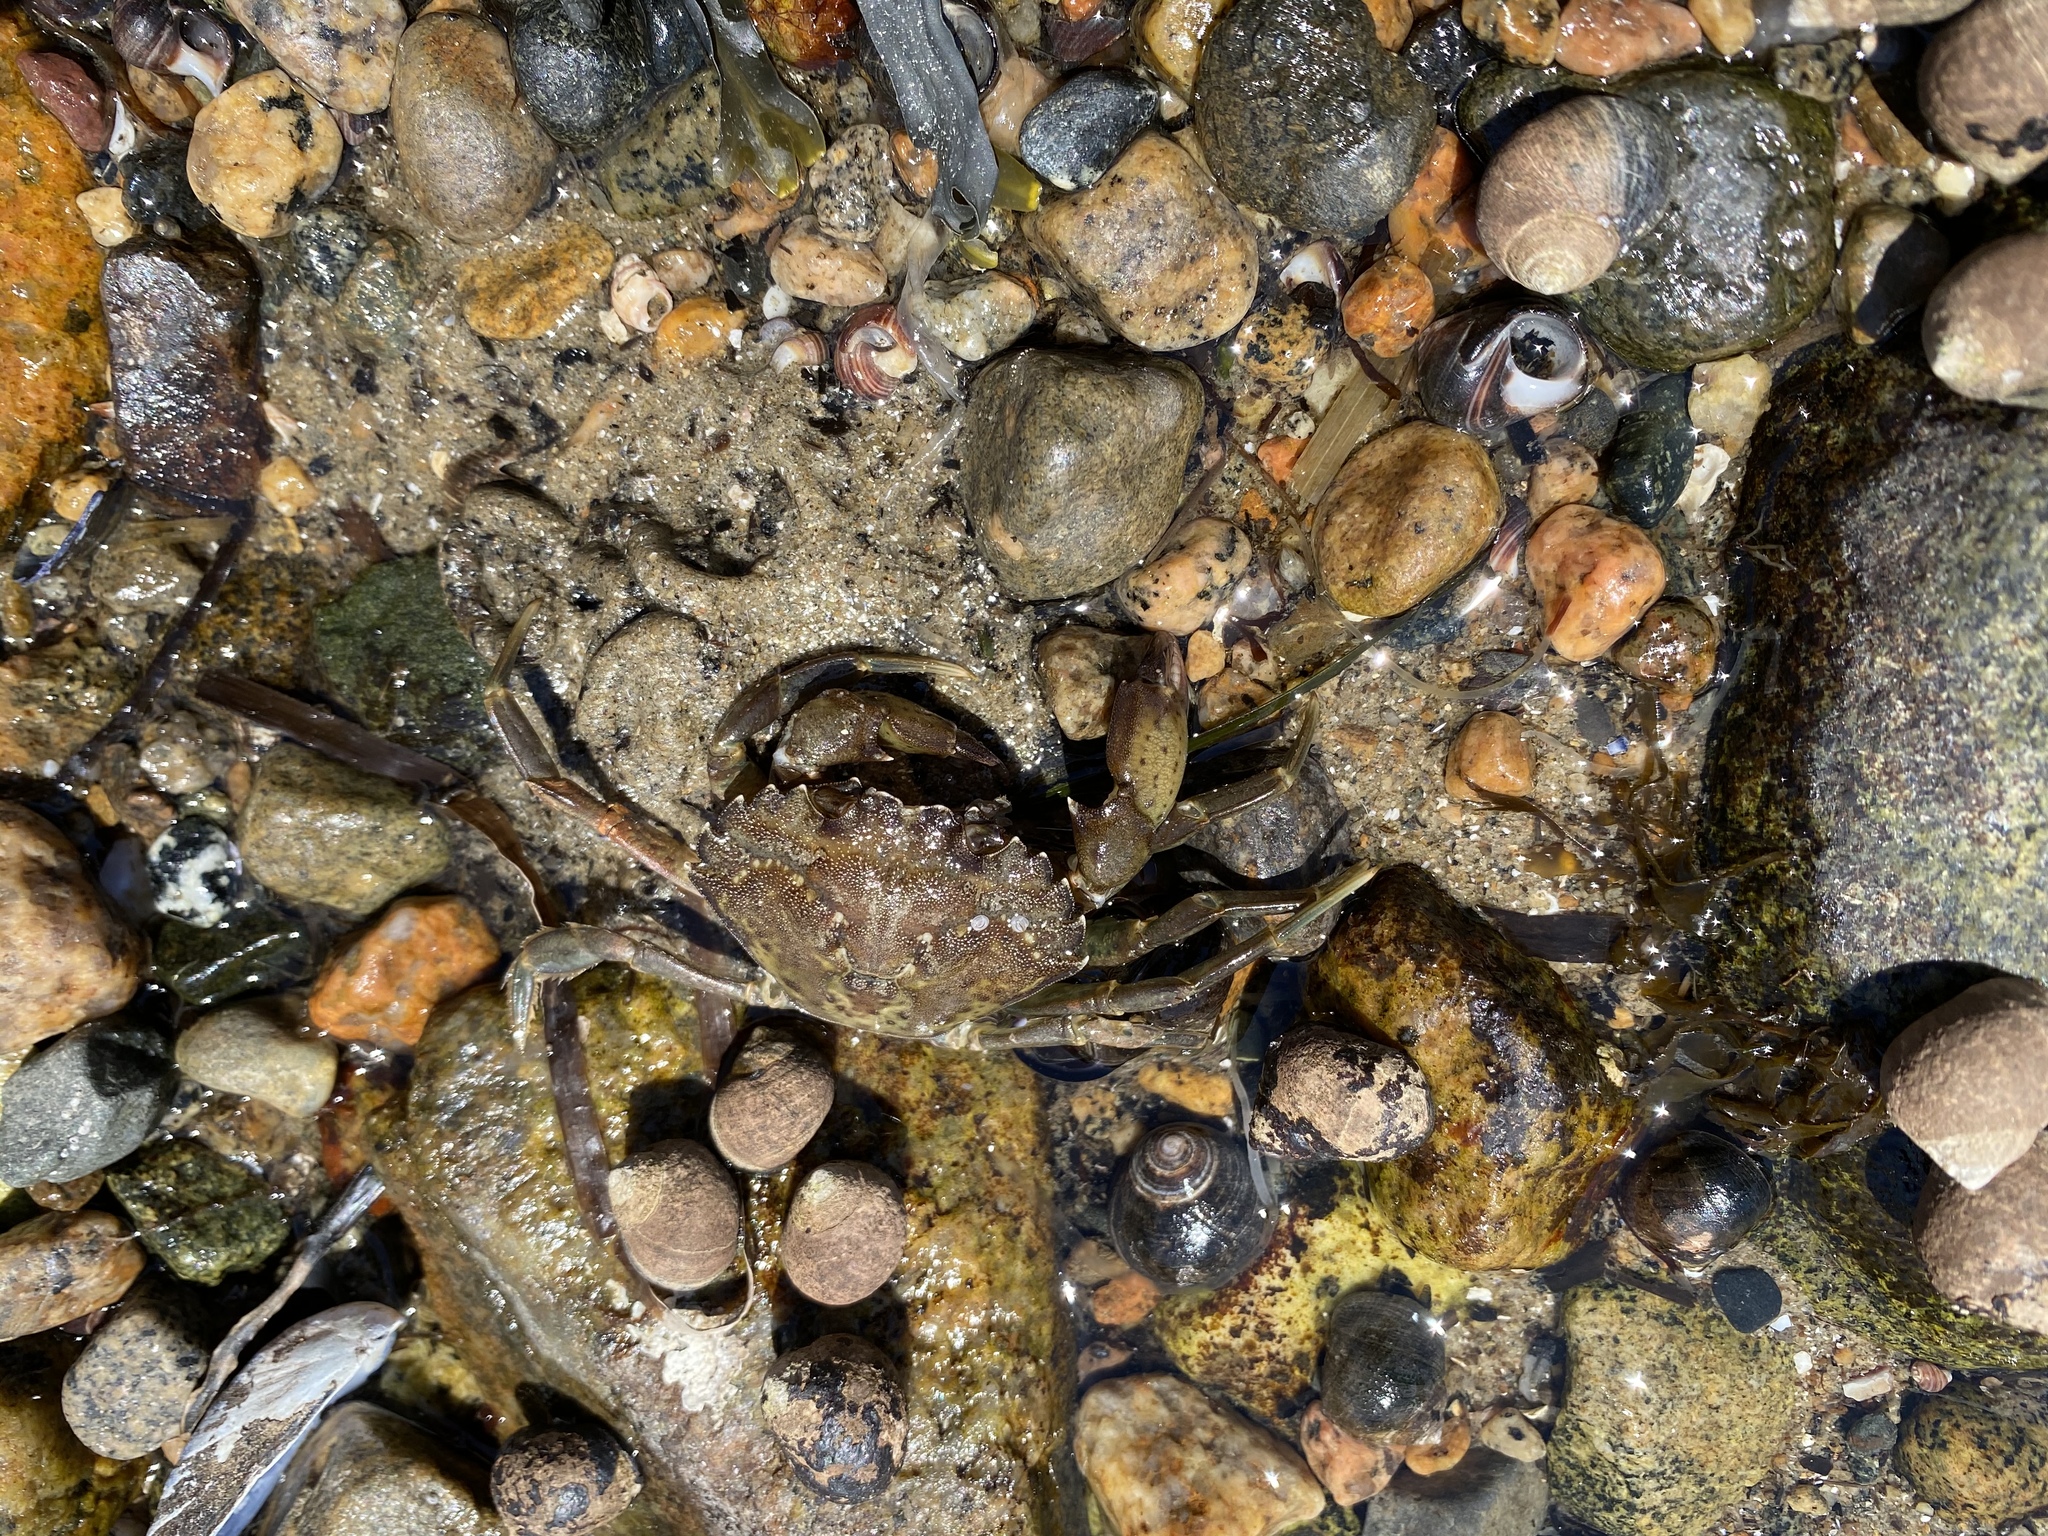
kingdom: Animalia
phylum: Arthropoda
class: Malacostraca
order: Decapoda
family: Carcinidae
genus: Carcinus
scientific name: Carcinus maenas
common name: European green crab
